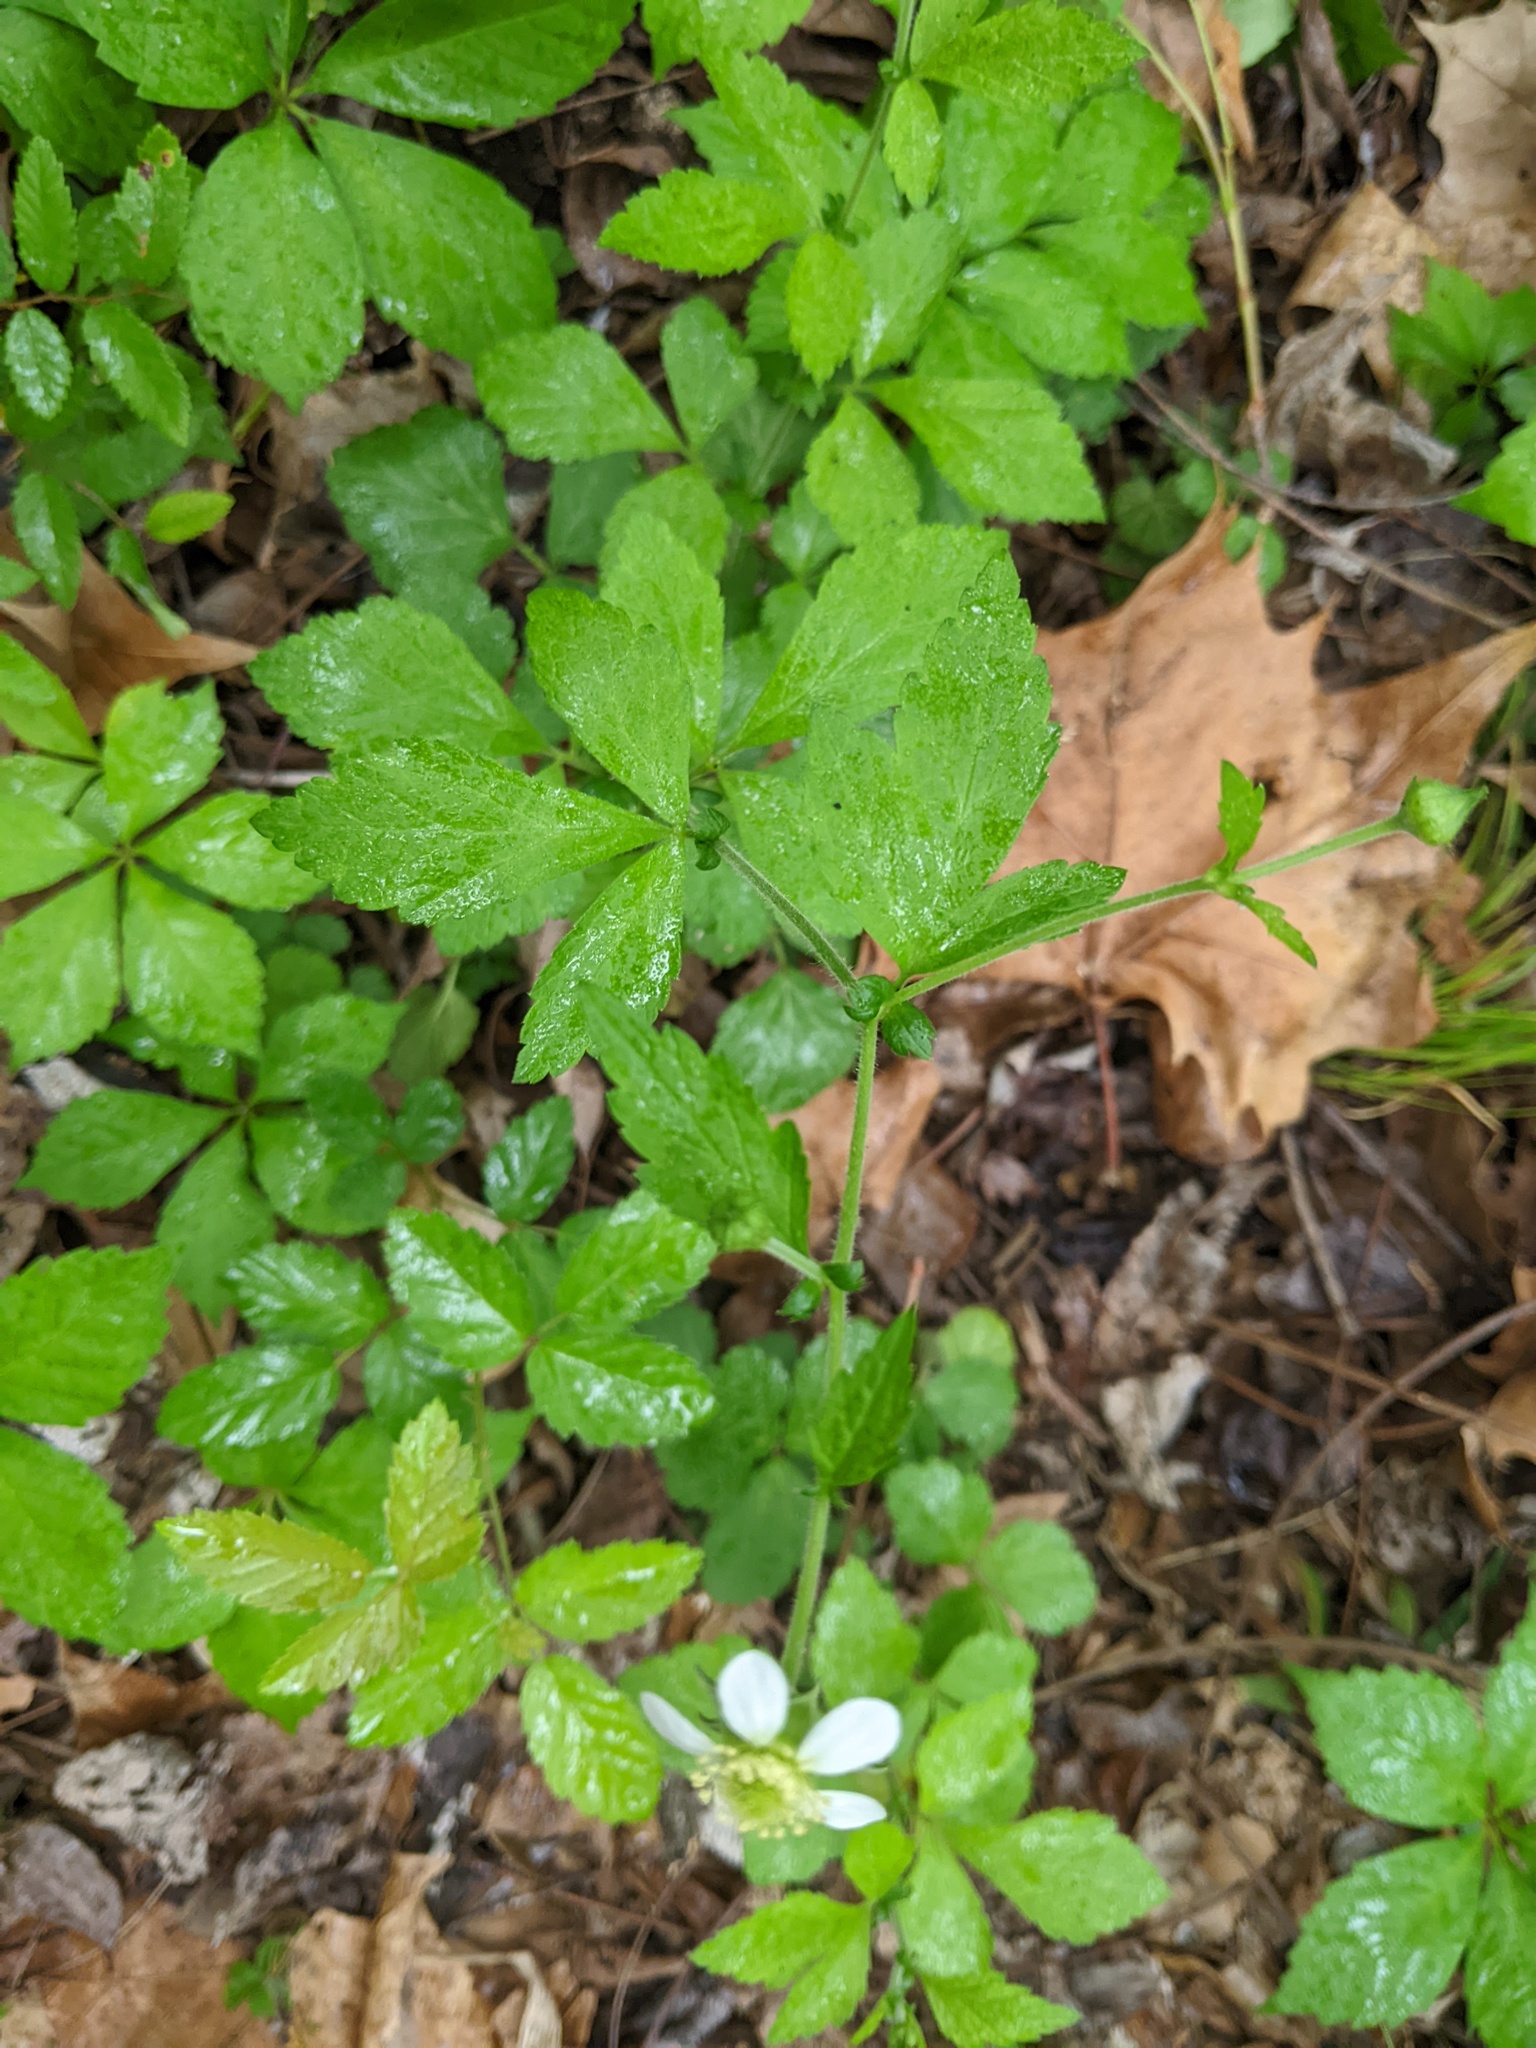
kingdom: Plantae
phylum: Tracheophyta
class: Magnoliopsida
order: Rosales
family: Rosaceae
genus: Geum
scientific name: Geum canadense
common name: White avens
